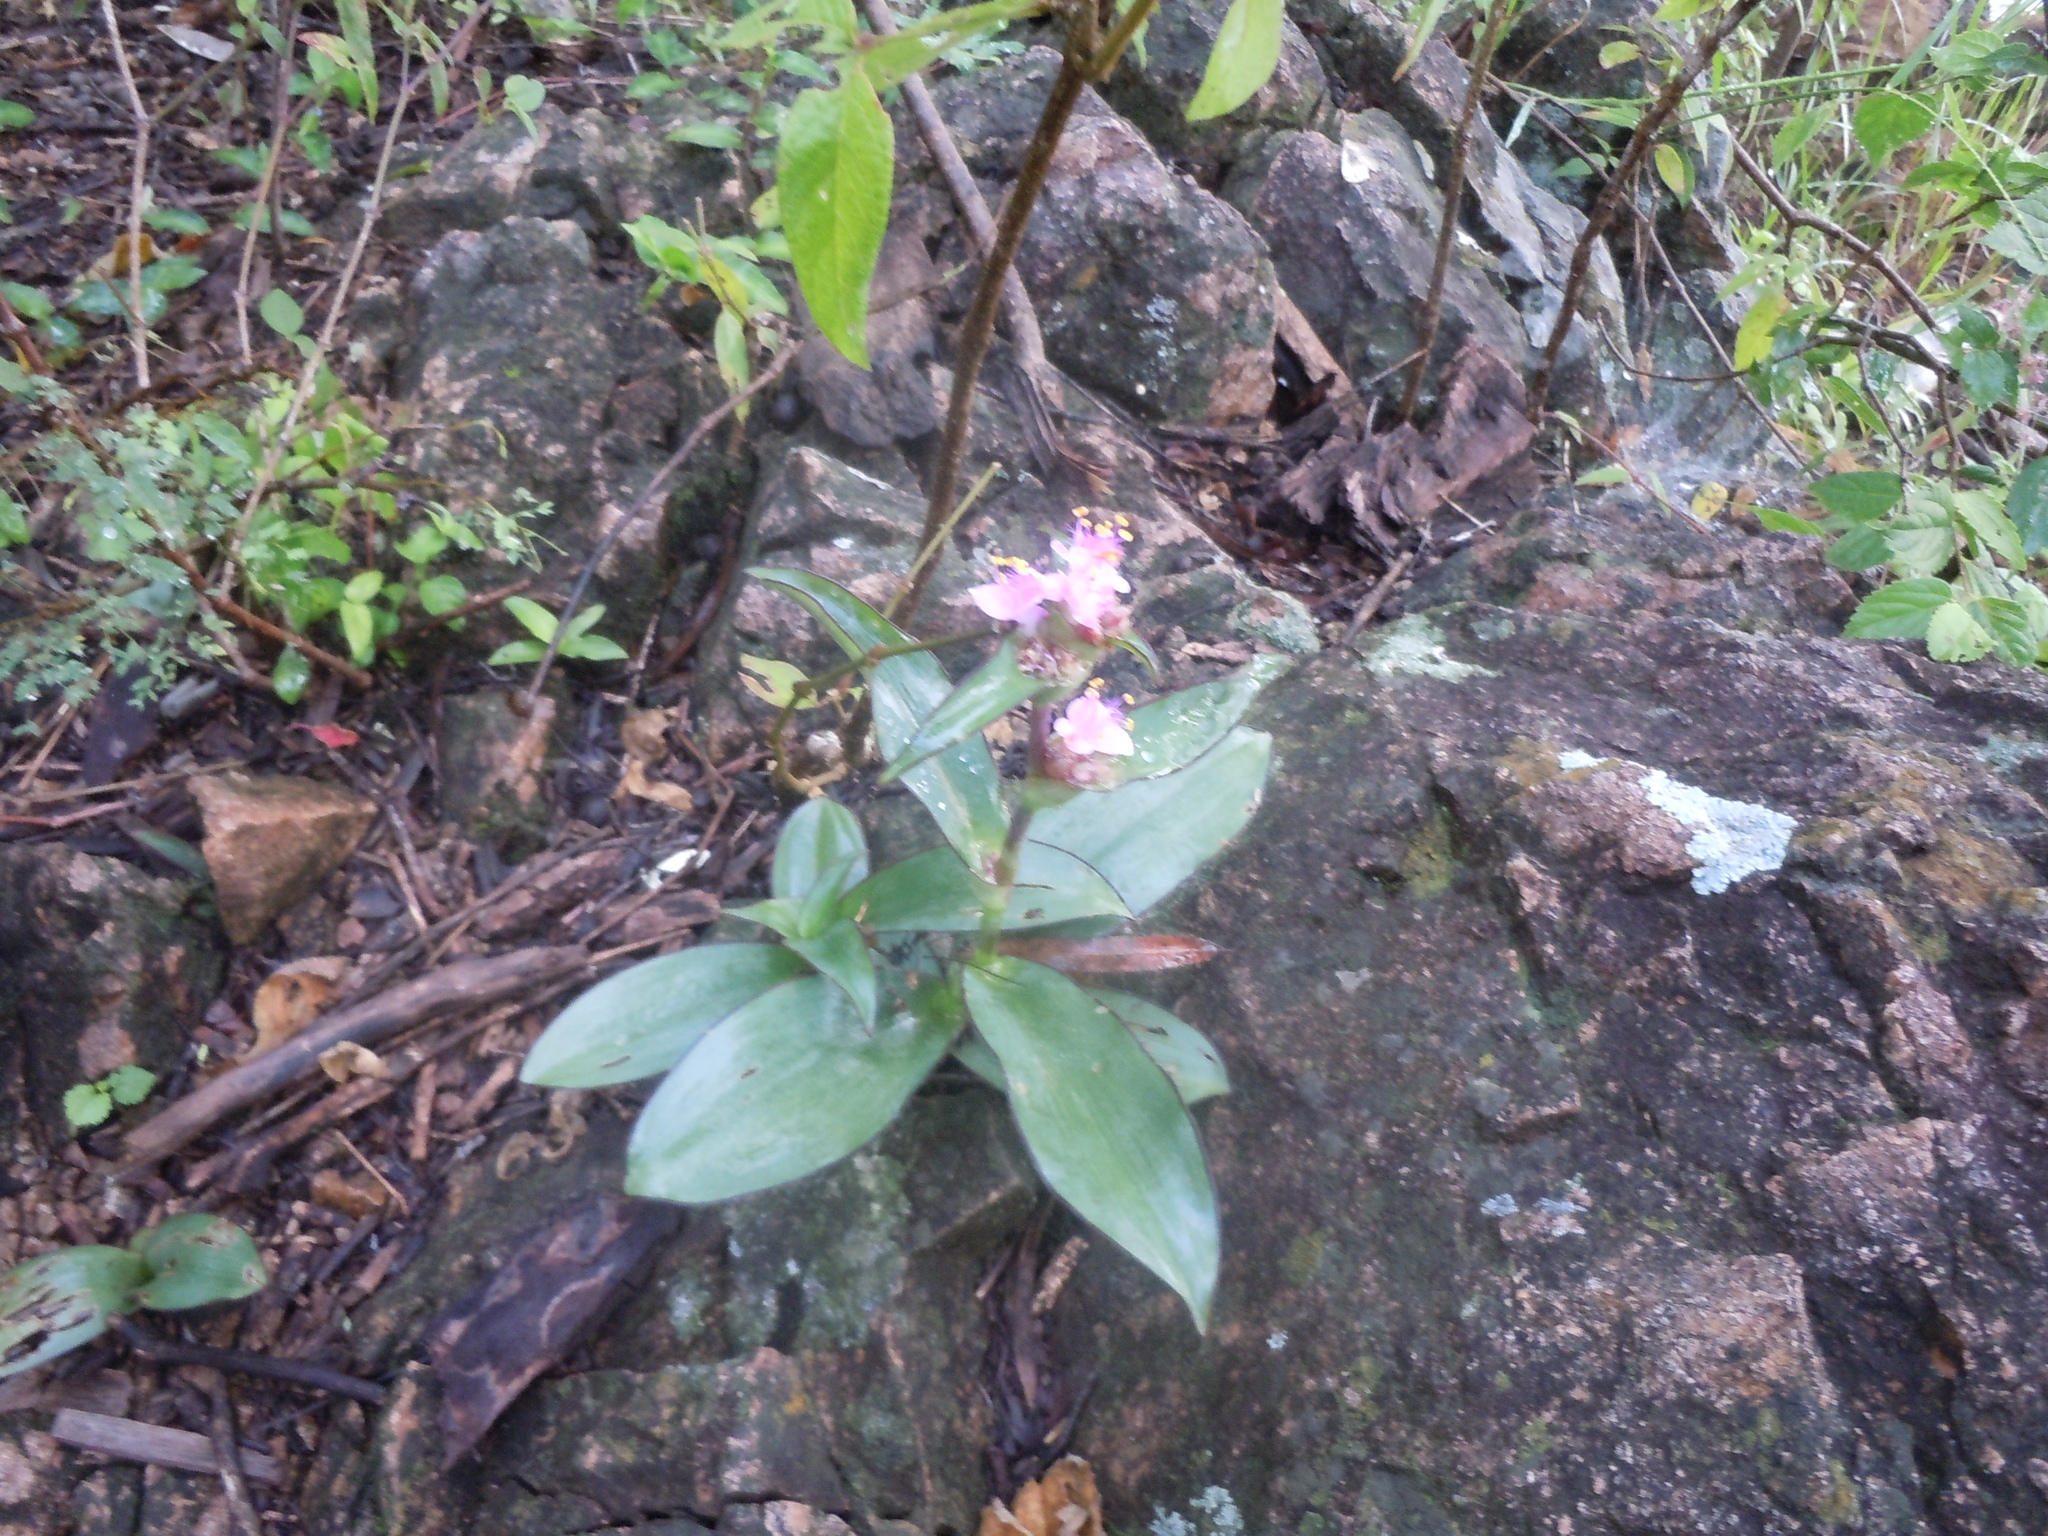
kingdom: Plantae
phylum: Tracheophyta
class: Liliopsida
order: Commelinales
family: Commelinaceae
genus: Tradescantia
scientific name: Tradescantia andrieuxii
